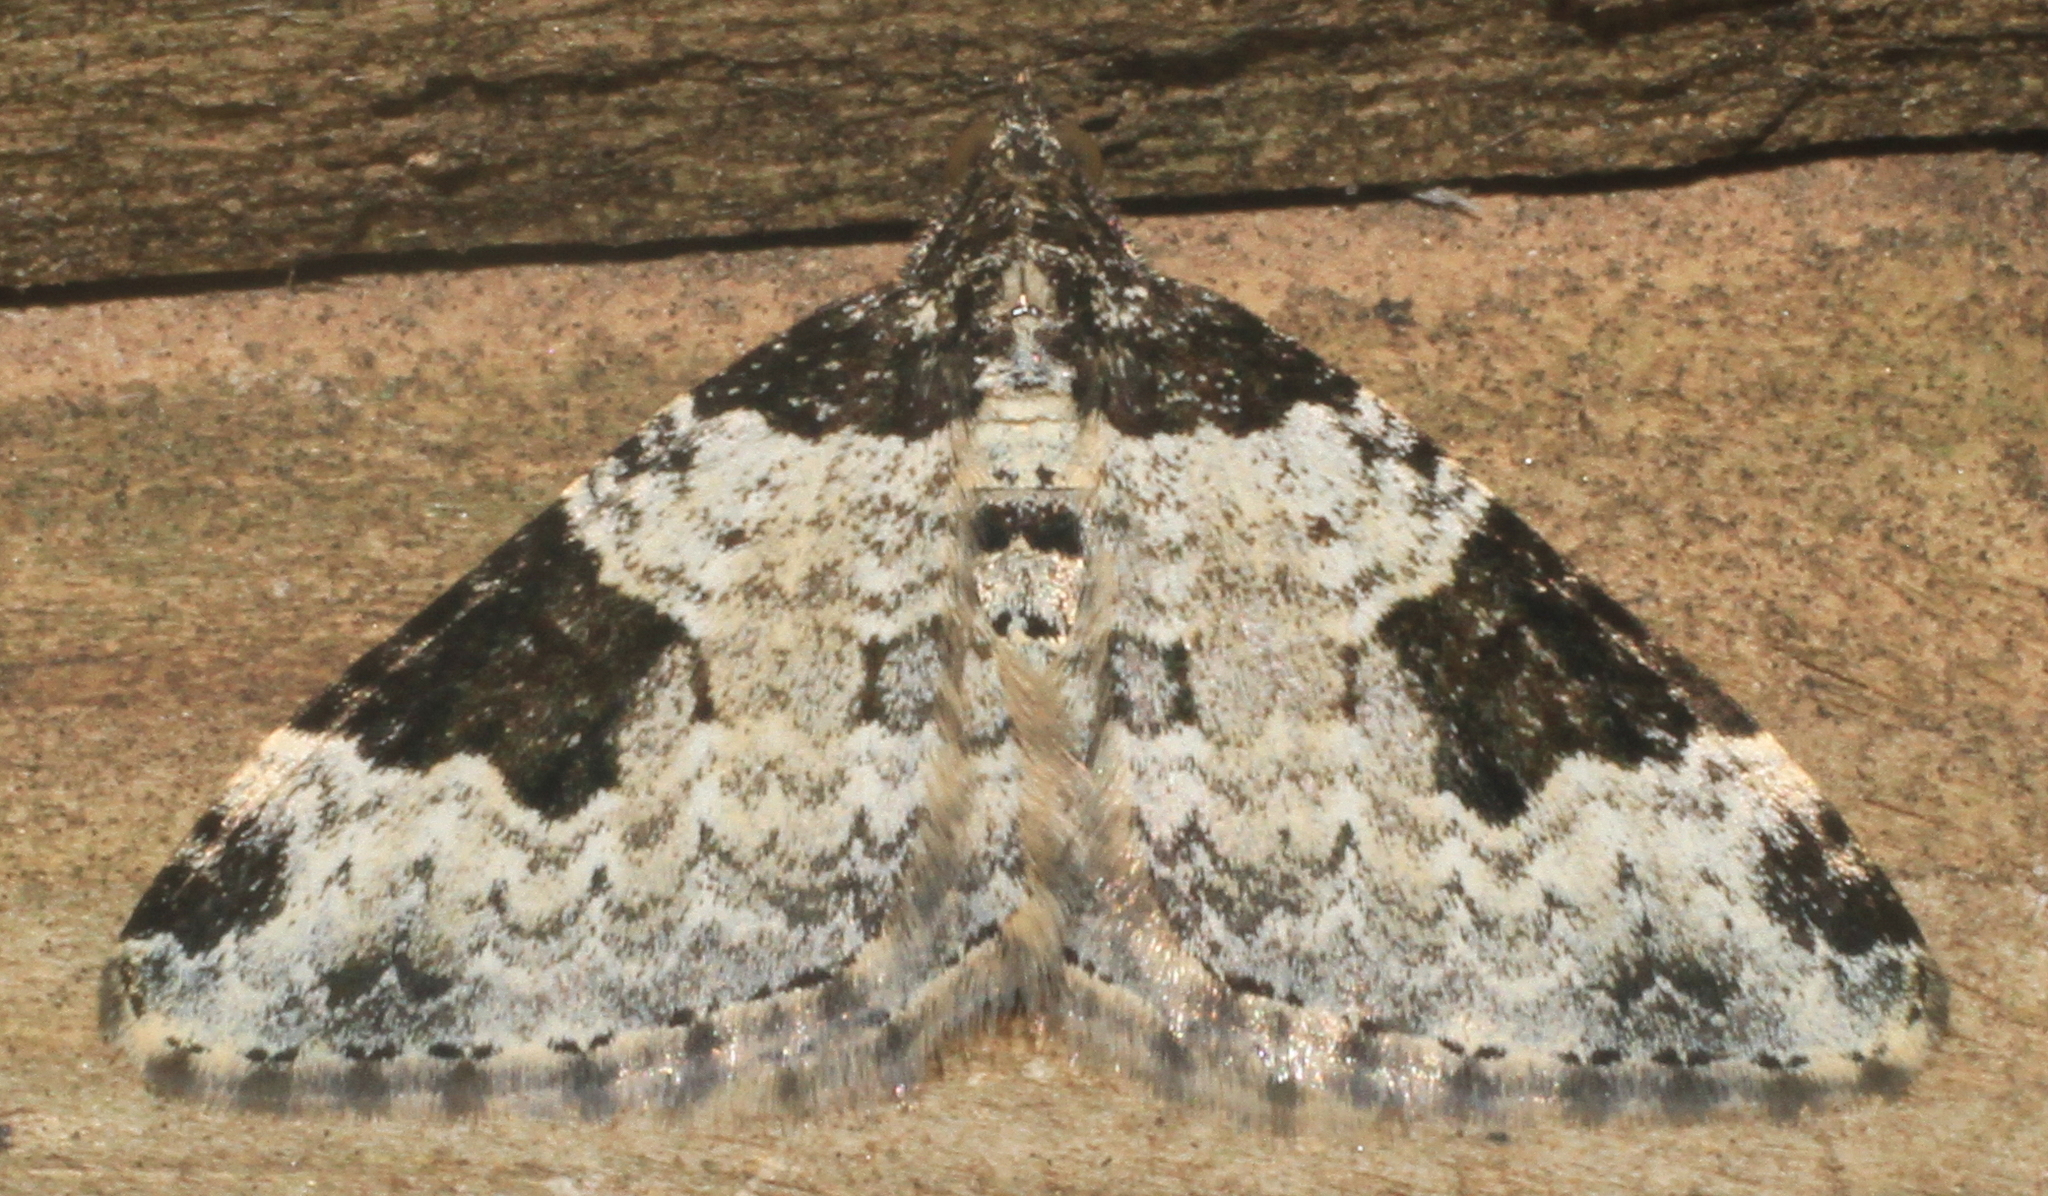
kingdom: Animalia
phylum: Arthropoda
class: Insecta
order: Lepidoptera
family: Geometridae
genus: Xanthorhoe
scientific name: Xanthorhoe fluctuata
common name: Garden carpet
